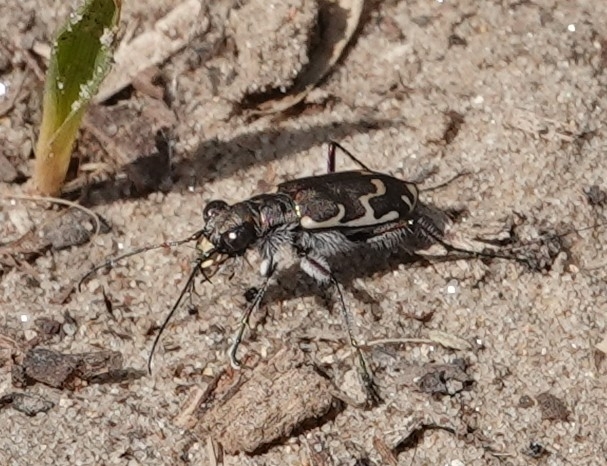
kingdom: Animalia
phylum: Arthropoda
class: Insecta
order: Coleoptera
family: Carabidae
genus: Cicindela
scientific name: Cicindela repanda
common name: Bronzed tiger beetle
